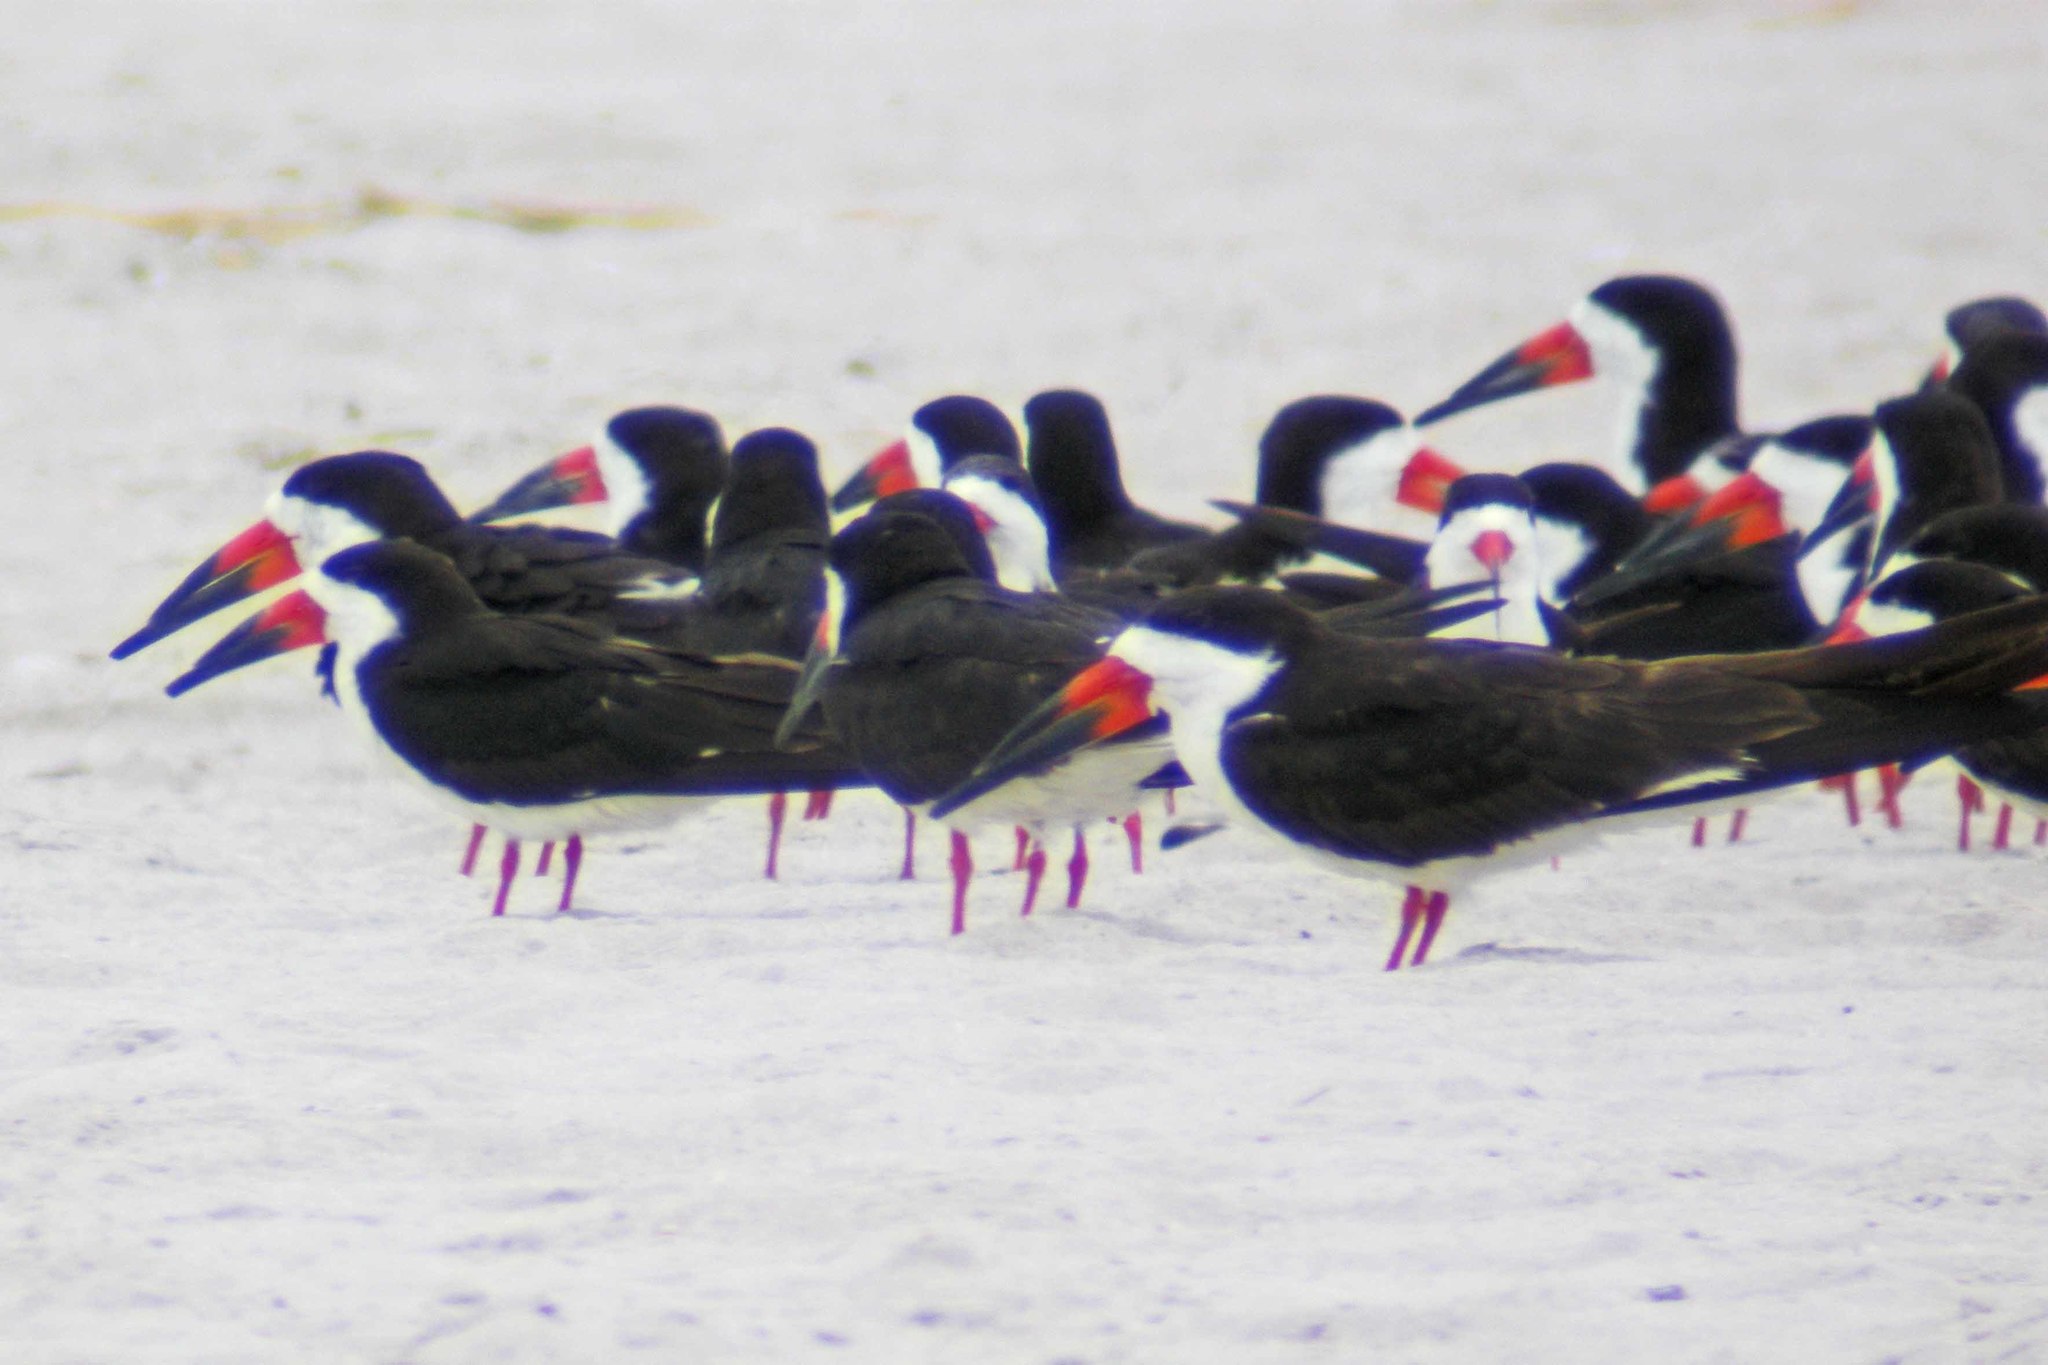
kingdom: Animalia
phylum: Chordata
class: Aves
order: Charadriiformes
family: Laridae
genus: Rynchops
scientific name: Rynchops niger
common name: Black skimmer
